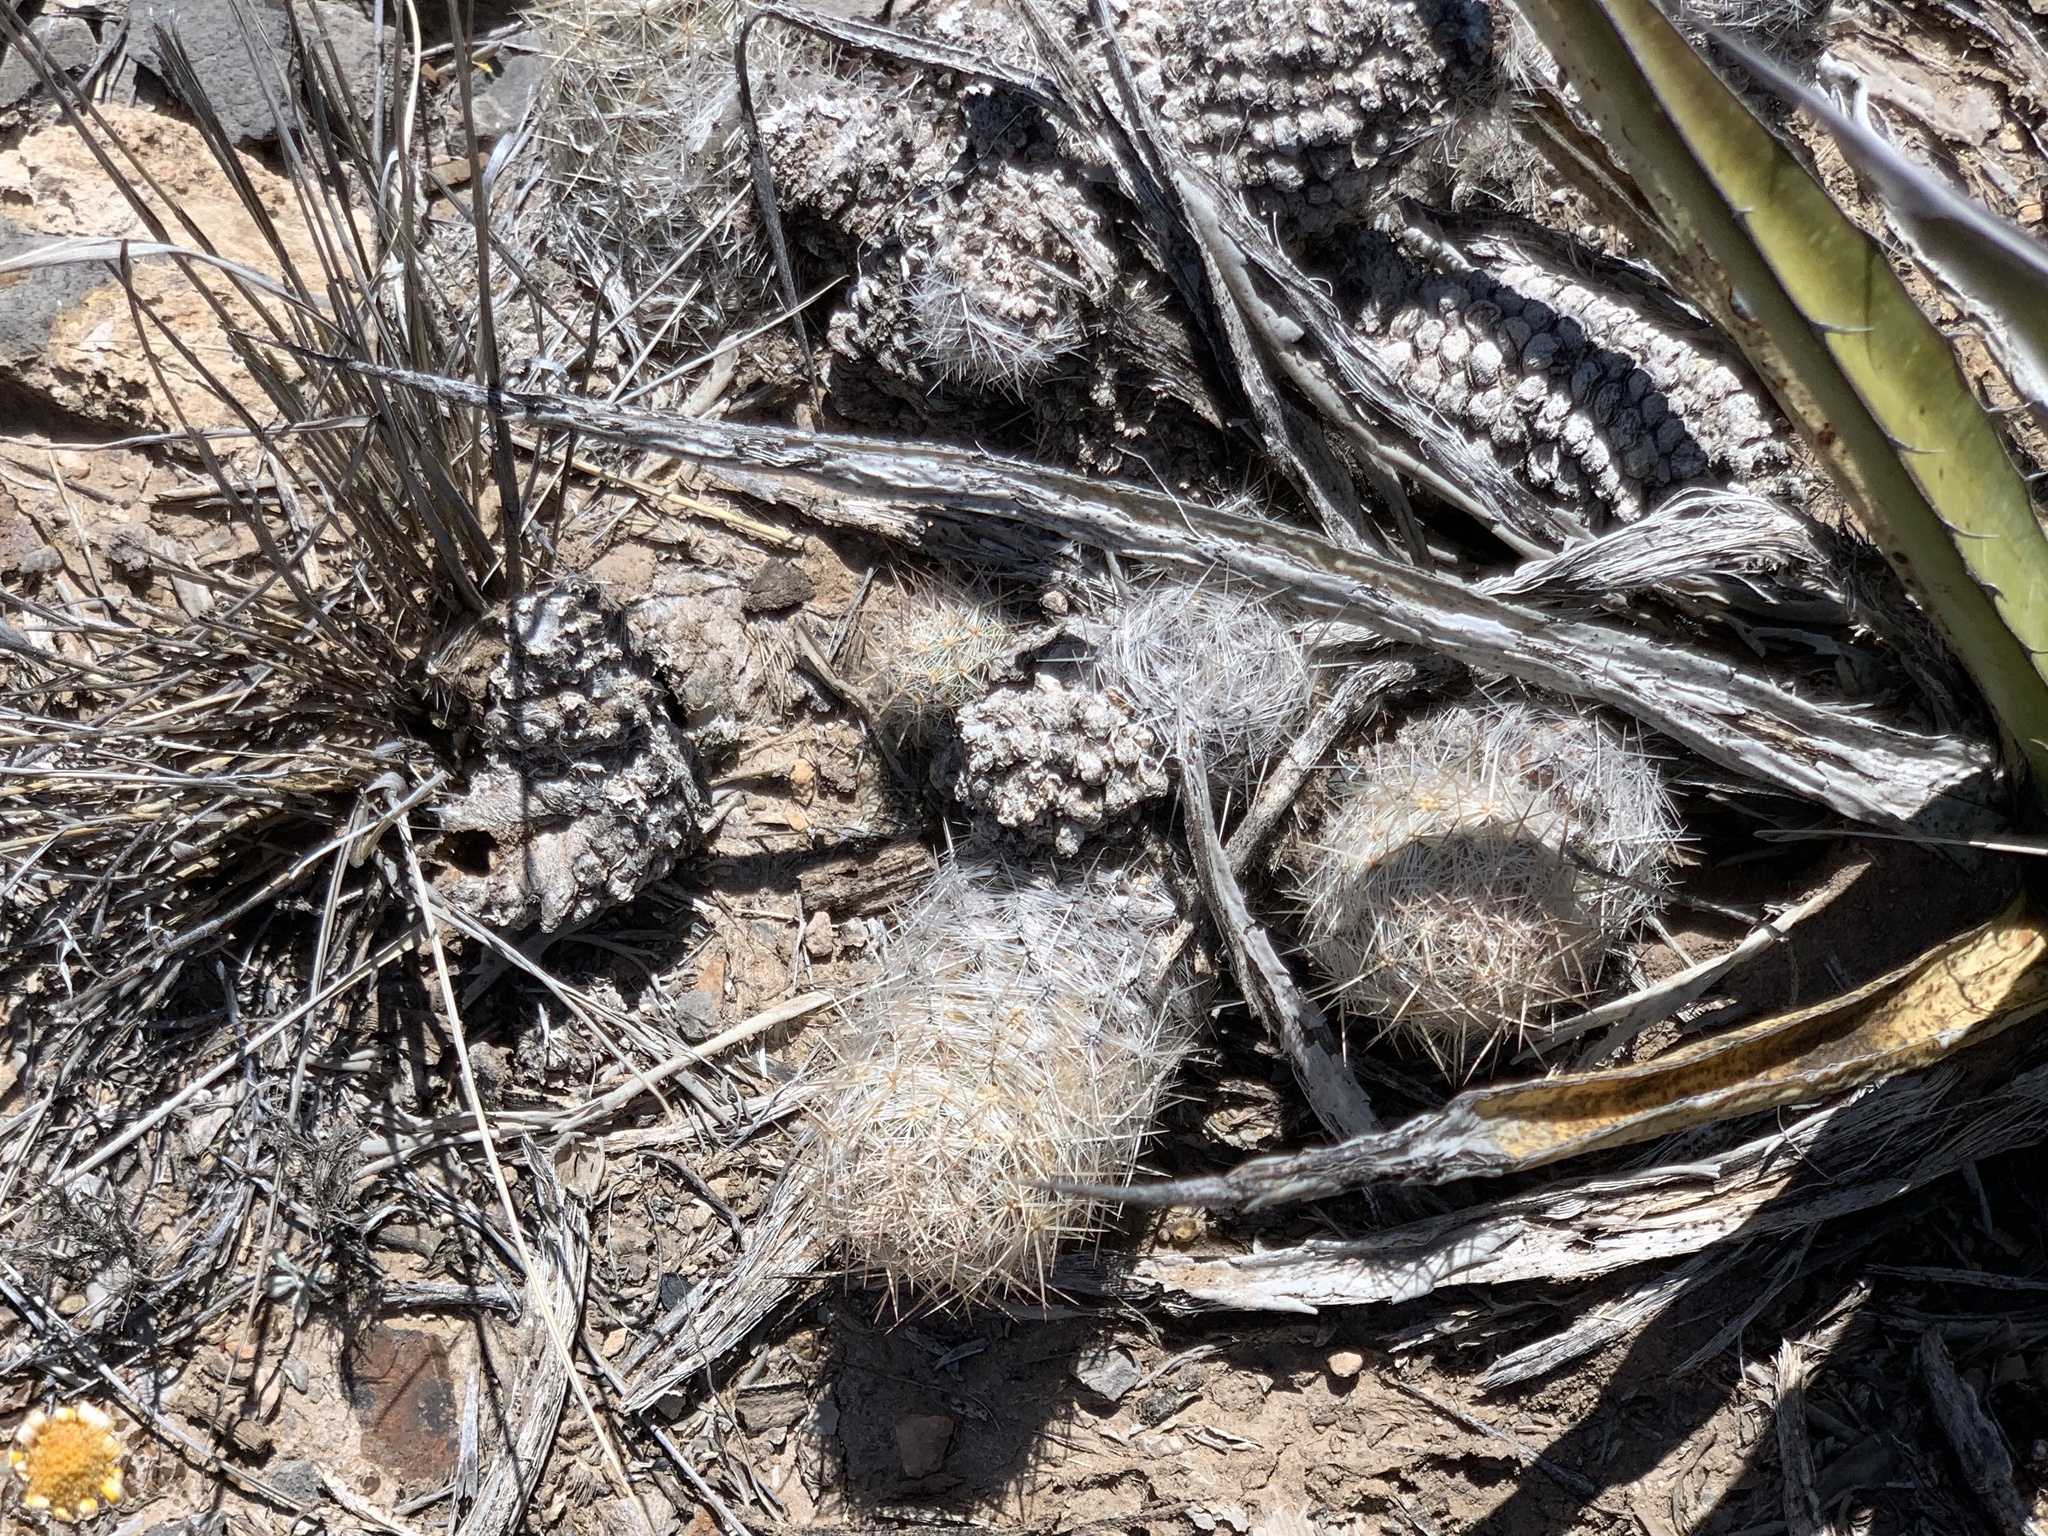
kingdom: Plantae
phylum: Tracheophyta
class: Magnoliopsida
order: Caryophyllales
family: Cactaceae
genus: Pelecyphora
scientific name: Pelecyphora tuberculosa
